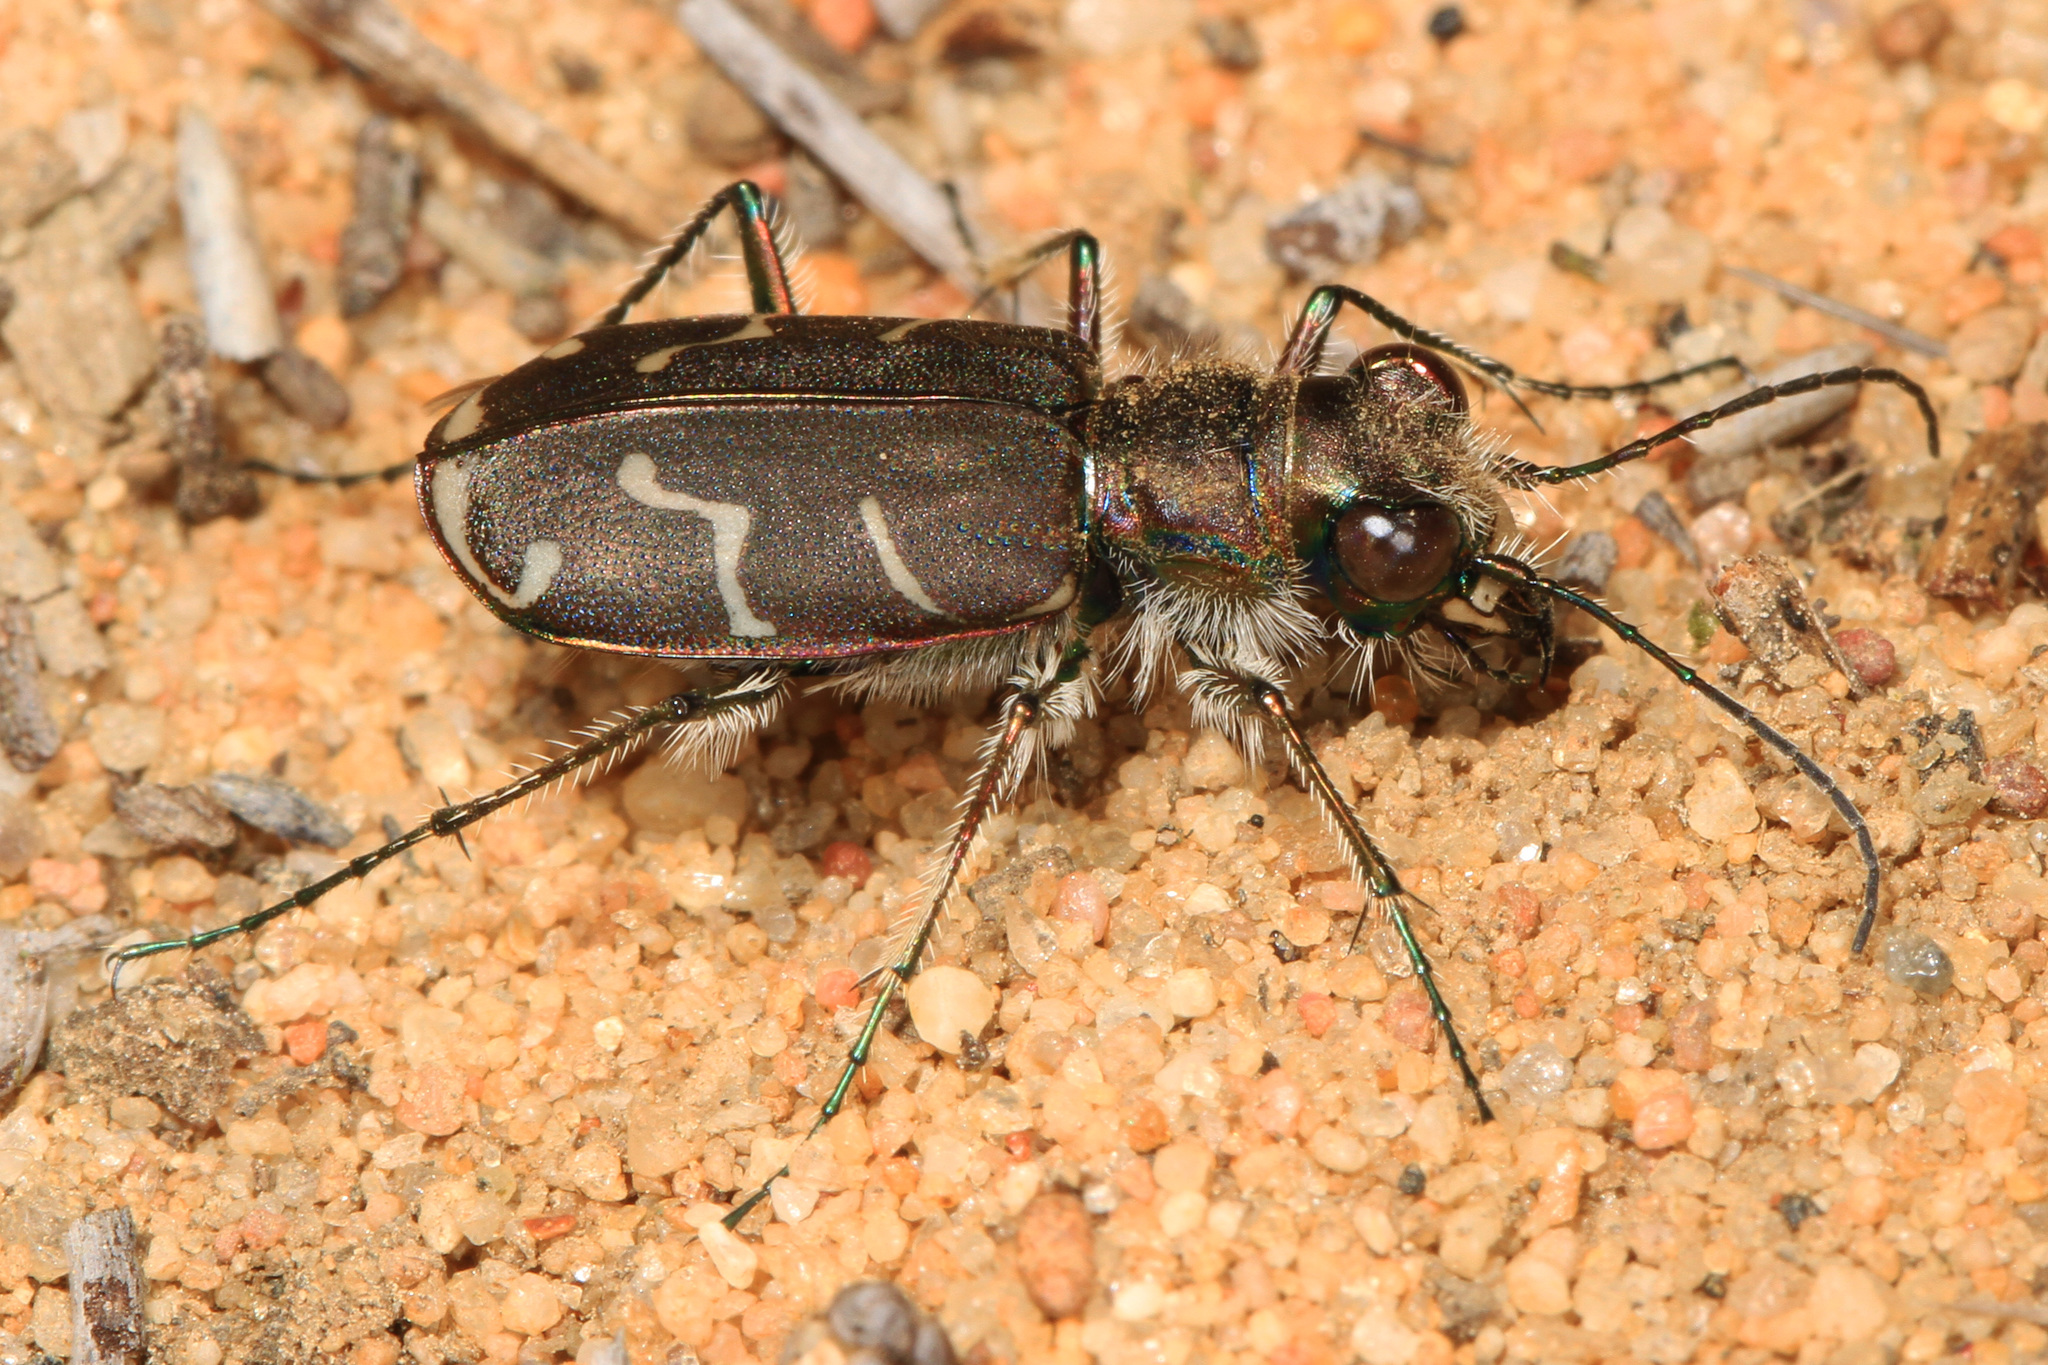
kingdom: Animalia
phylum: Arthropoda
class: Insecta
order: Coleoptera
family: Carabidae
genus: Cicindela
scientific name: Cicindela tranquebarica
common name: Oblique-lined tiger beetle
